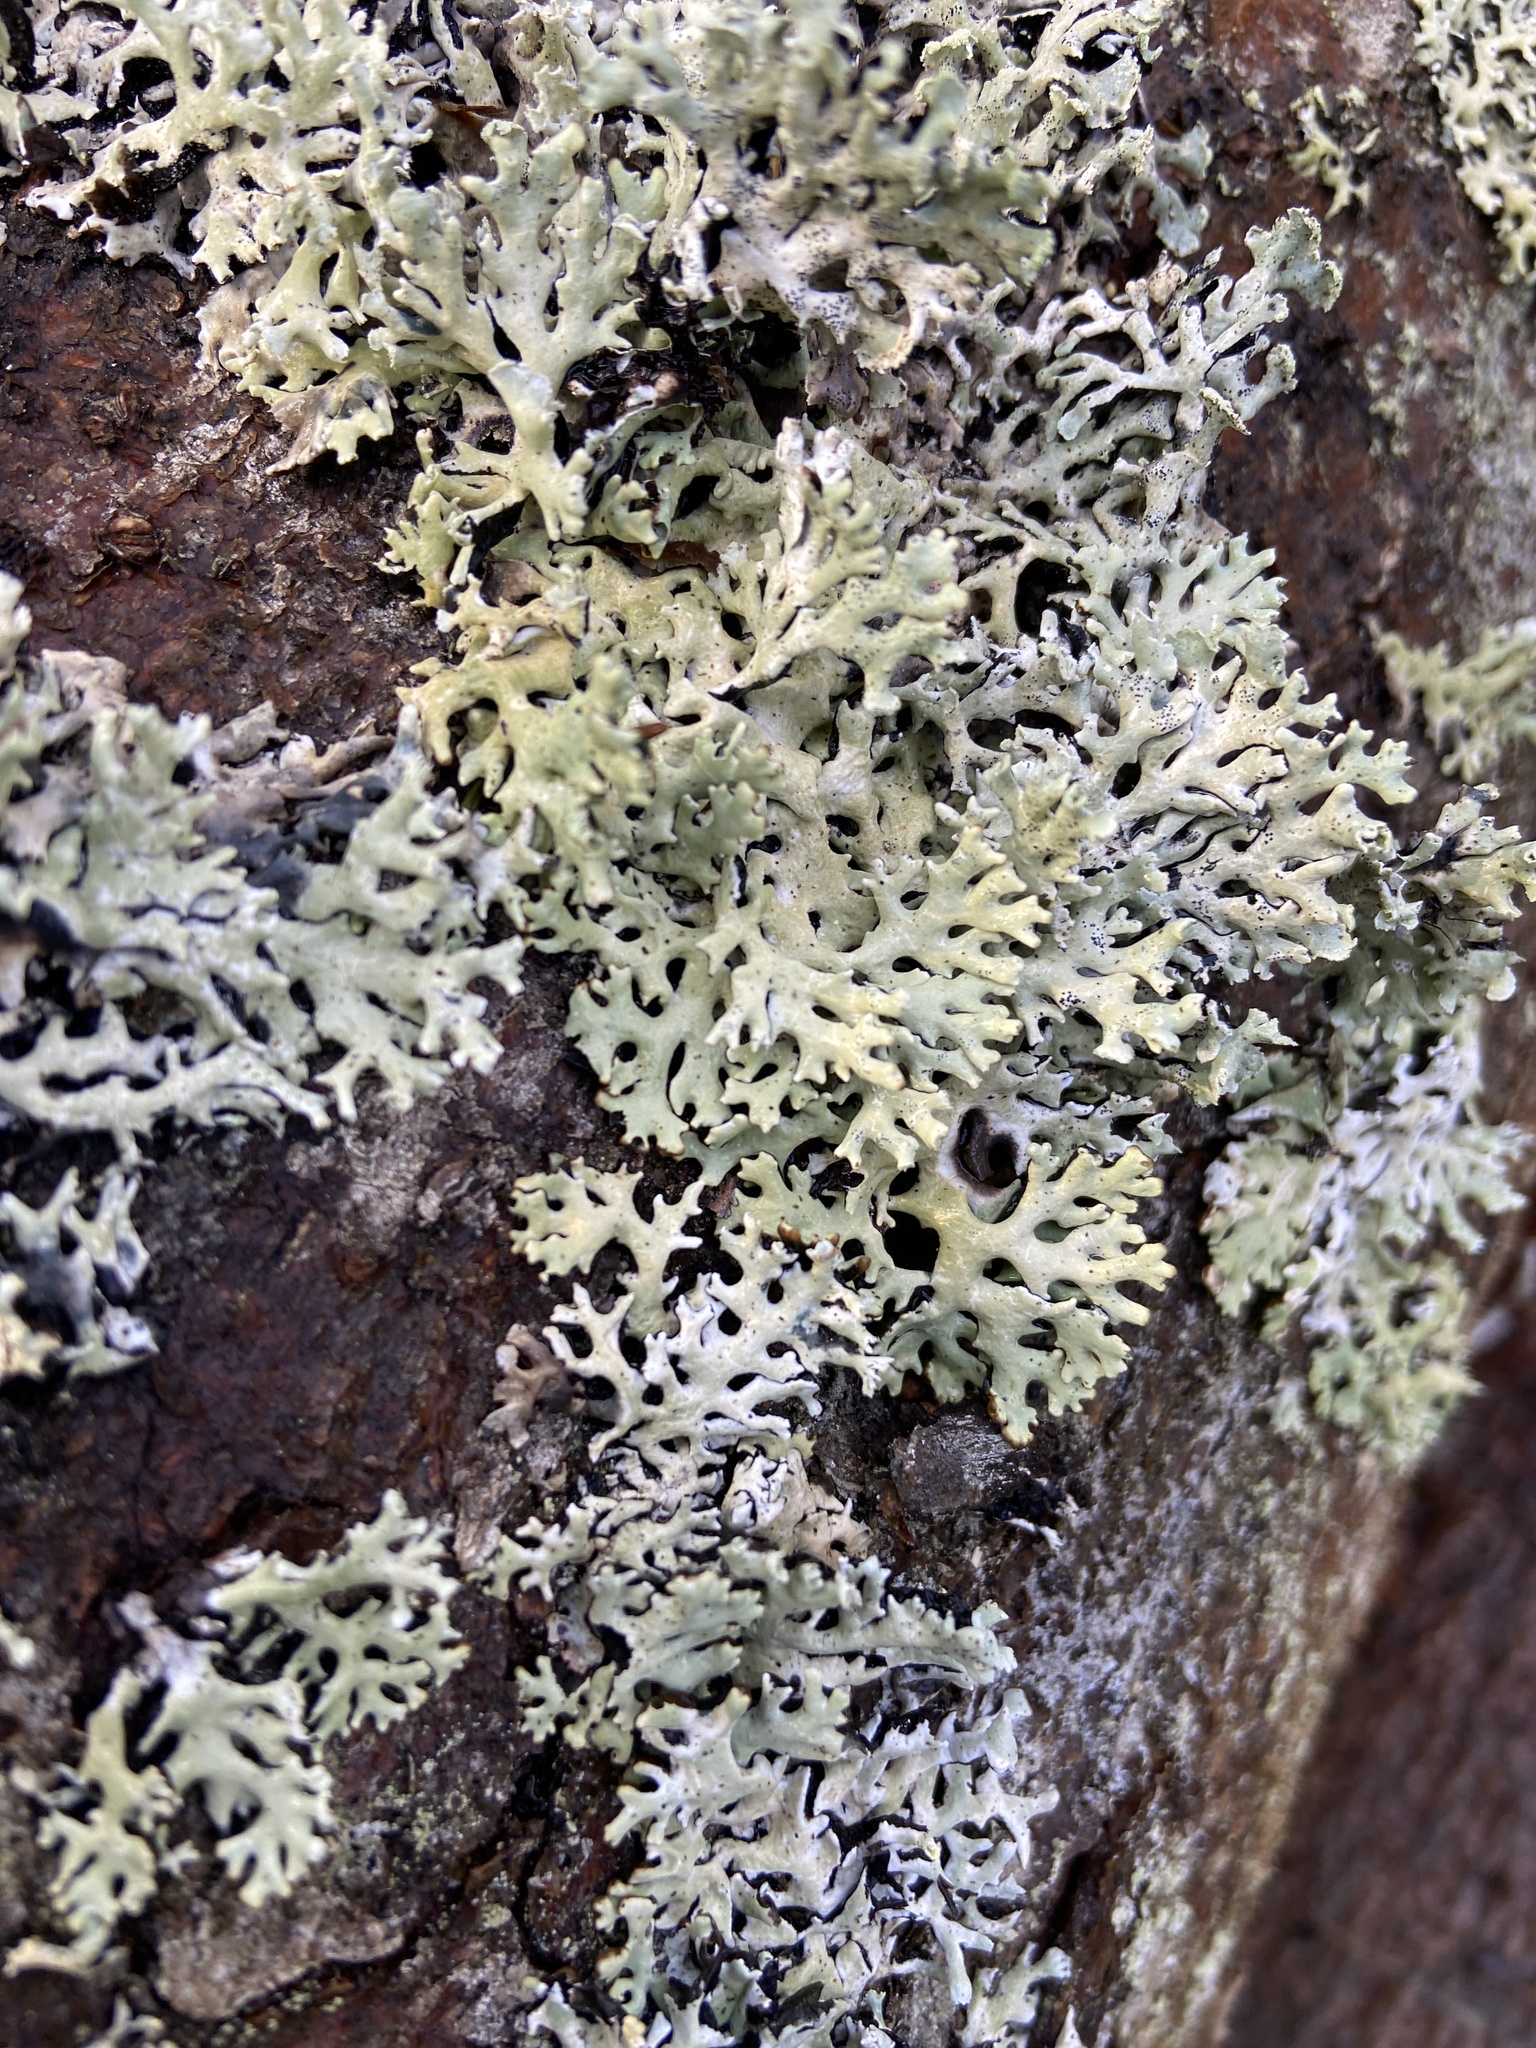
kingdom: Fungi
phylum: Ascomycota
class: Lecanoromycetes
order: Lecanorales
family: Parmeliaceae
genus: Hypogymnia
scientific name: Hypogymnia physodes
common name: Dark crottle
